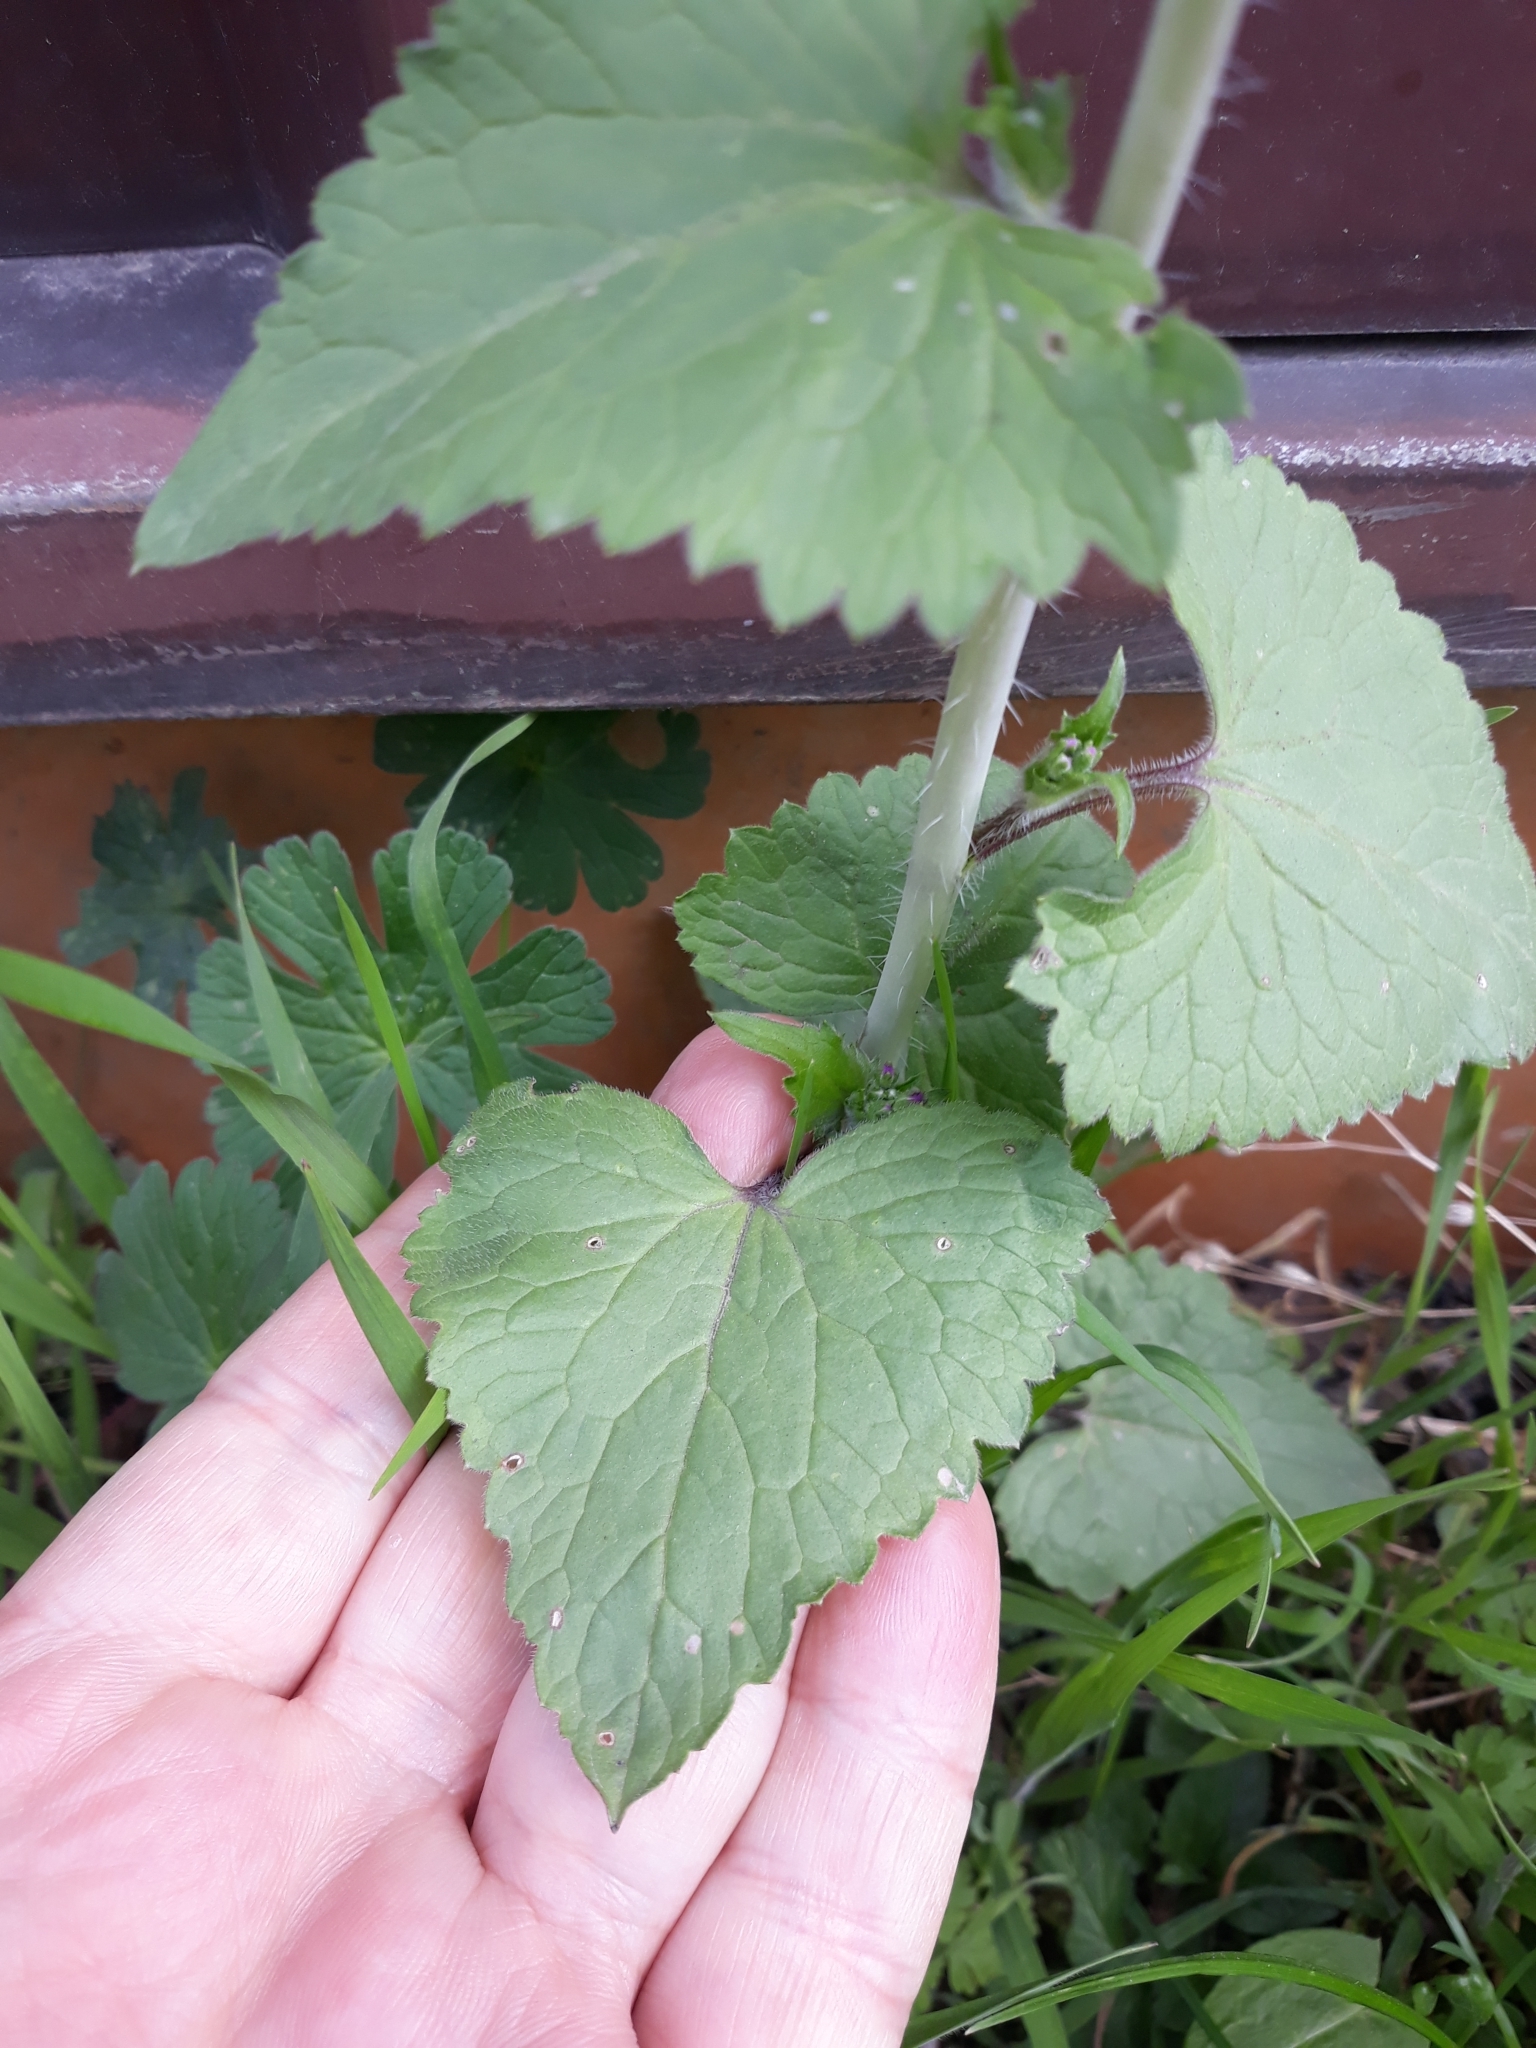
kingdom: Plantae
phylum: Tracheophyta
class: Magnoliopsida
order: Brassicales
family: Brassicaceae
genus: Lunaria
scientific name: Lunaria annua
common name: Honesty
